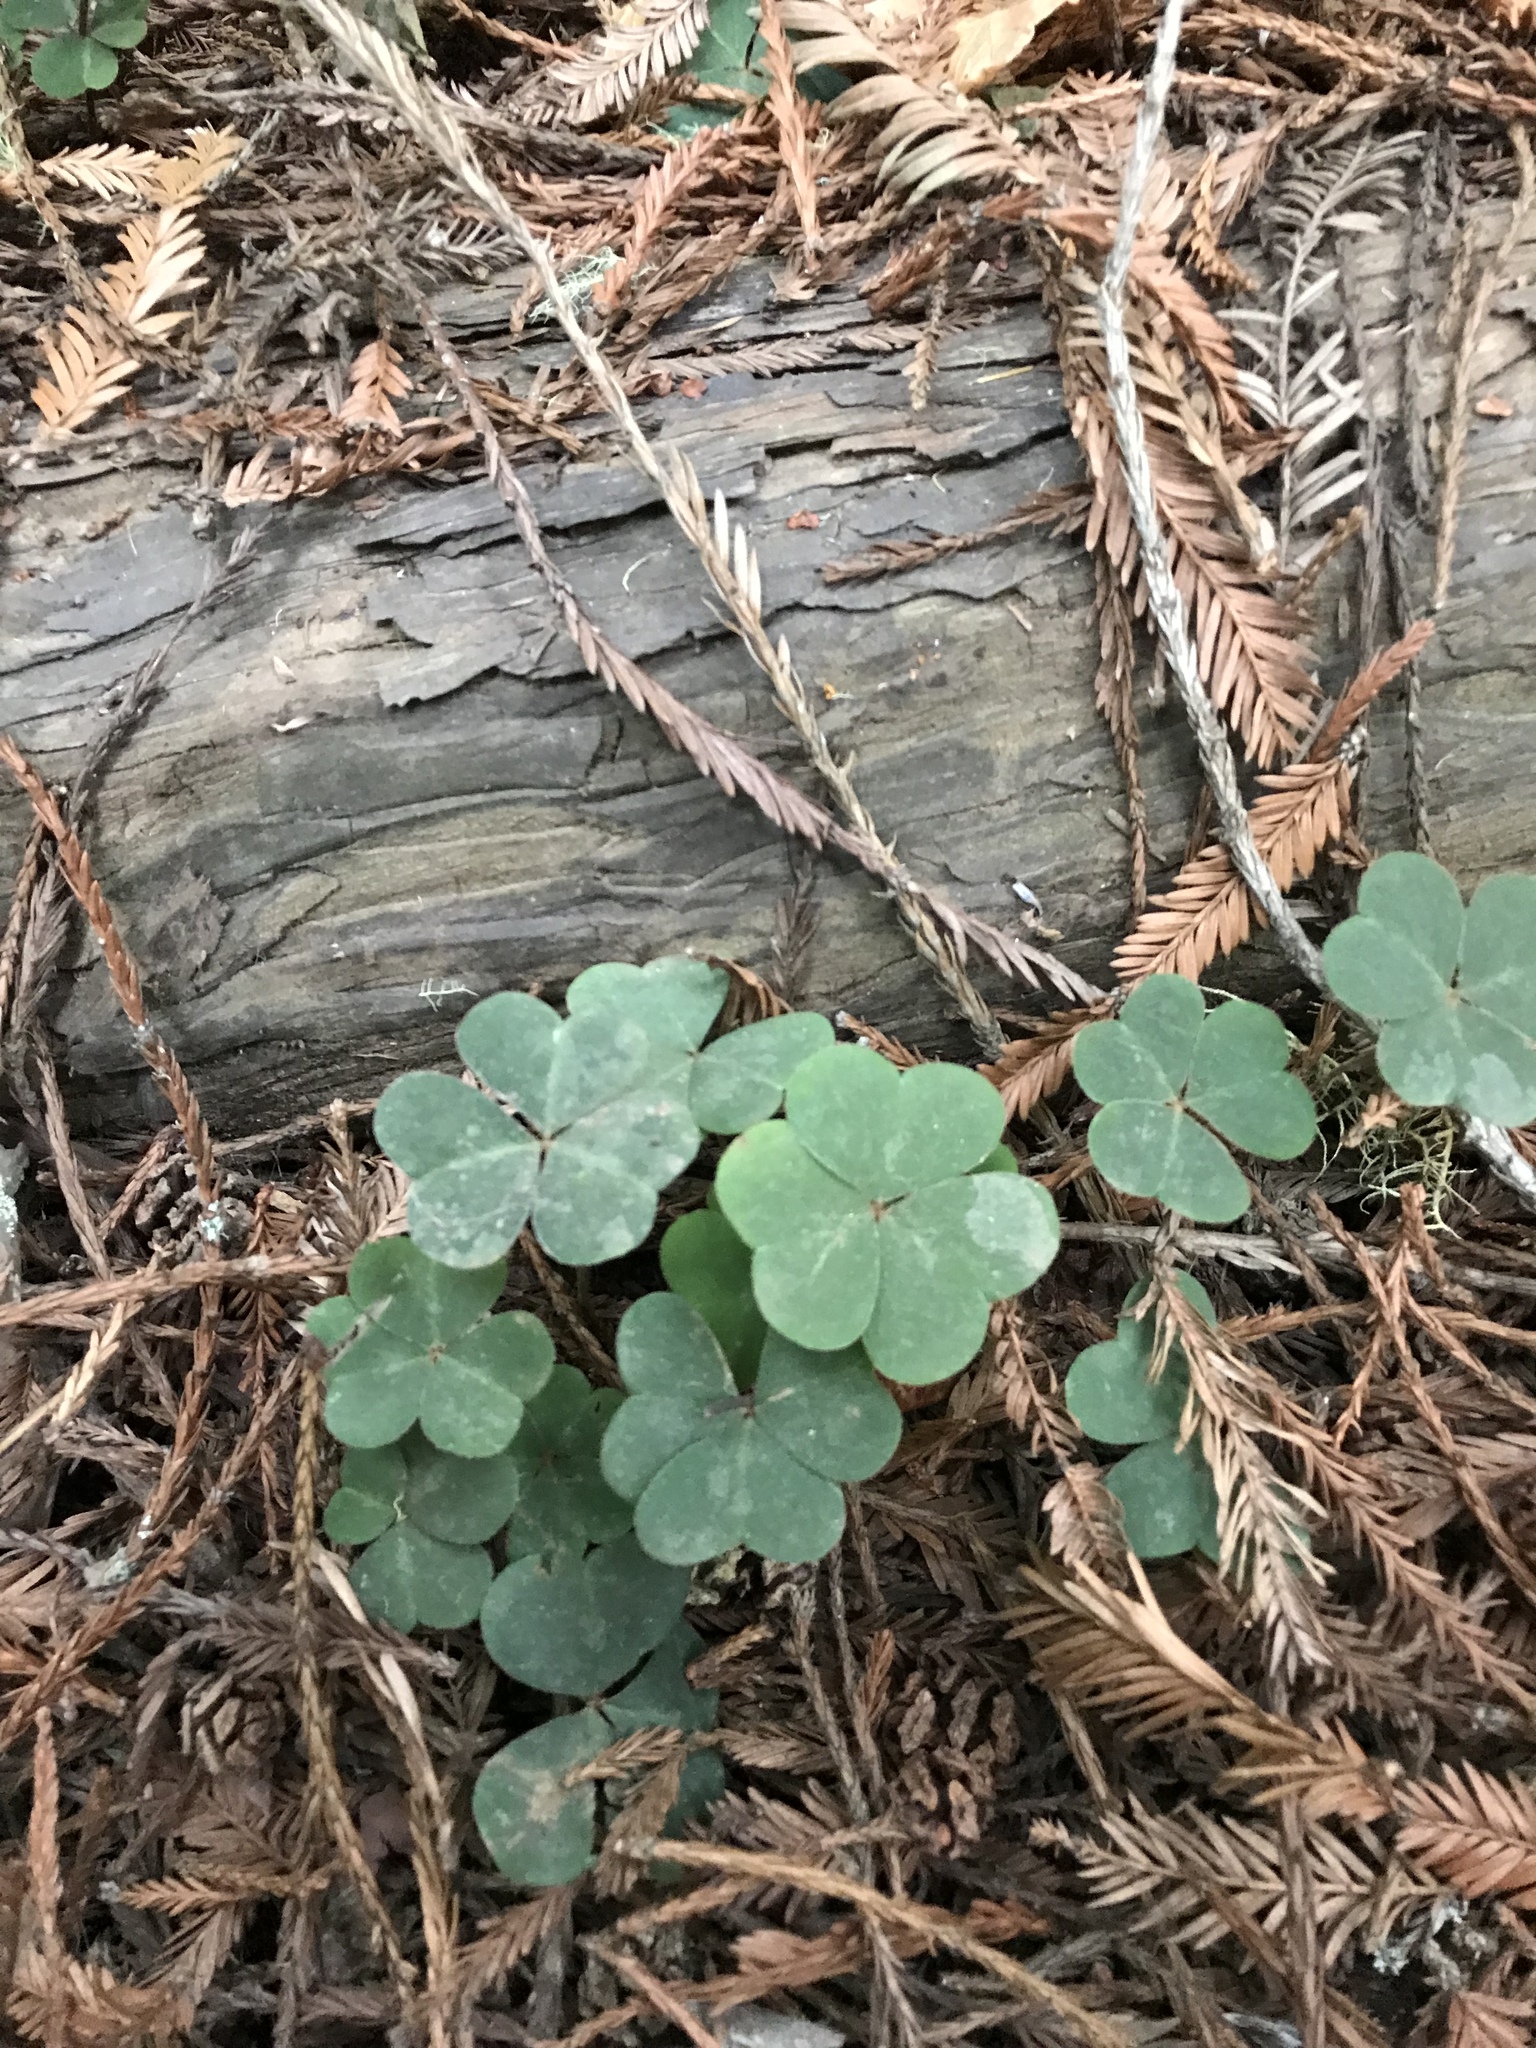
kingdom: Plantae
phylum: Tracheophyta
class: Magnoliopsida
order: Oxalidales
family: Oxalidaceae
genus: Oxalis
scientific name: Oxalis oregana
